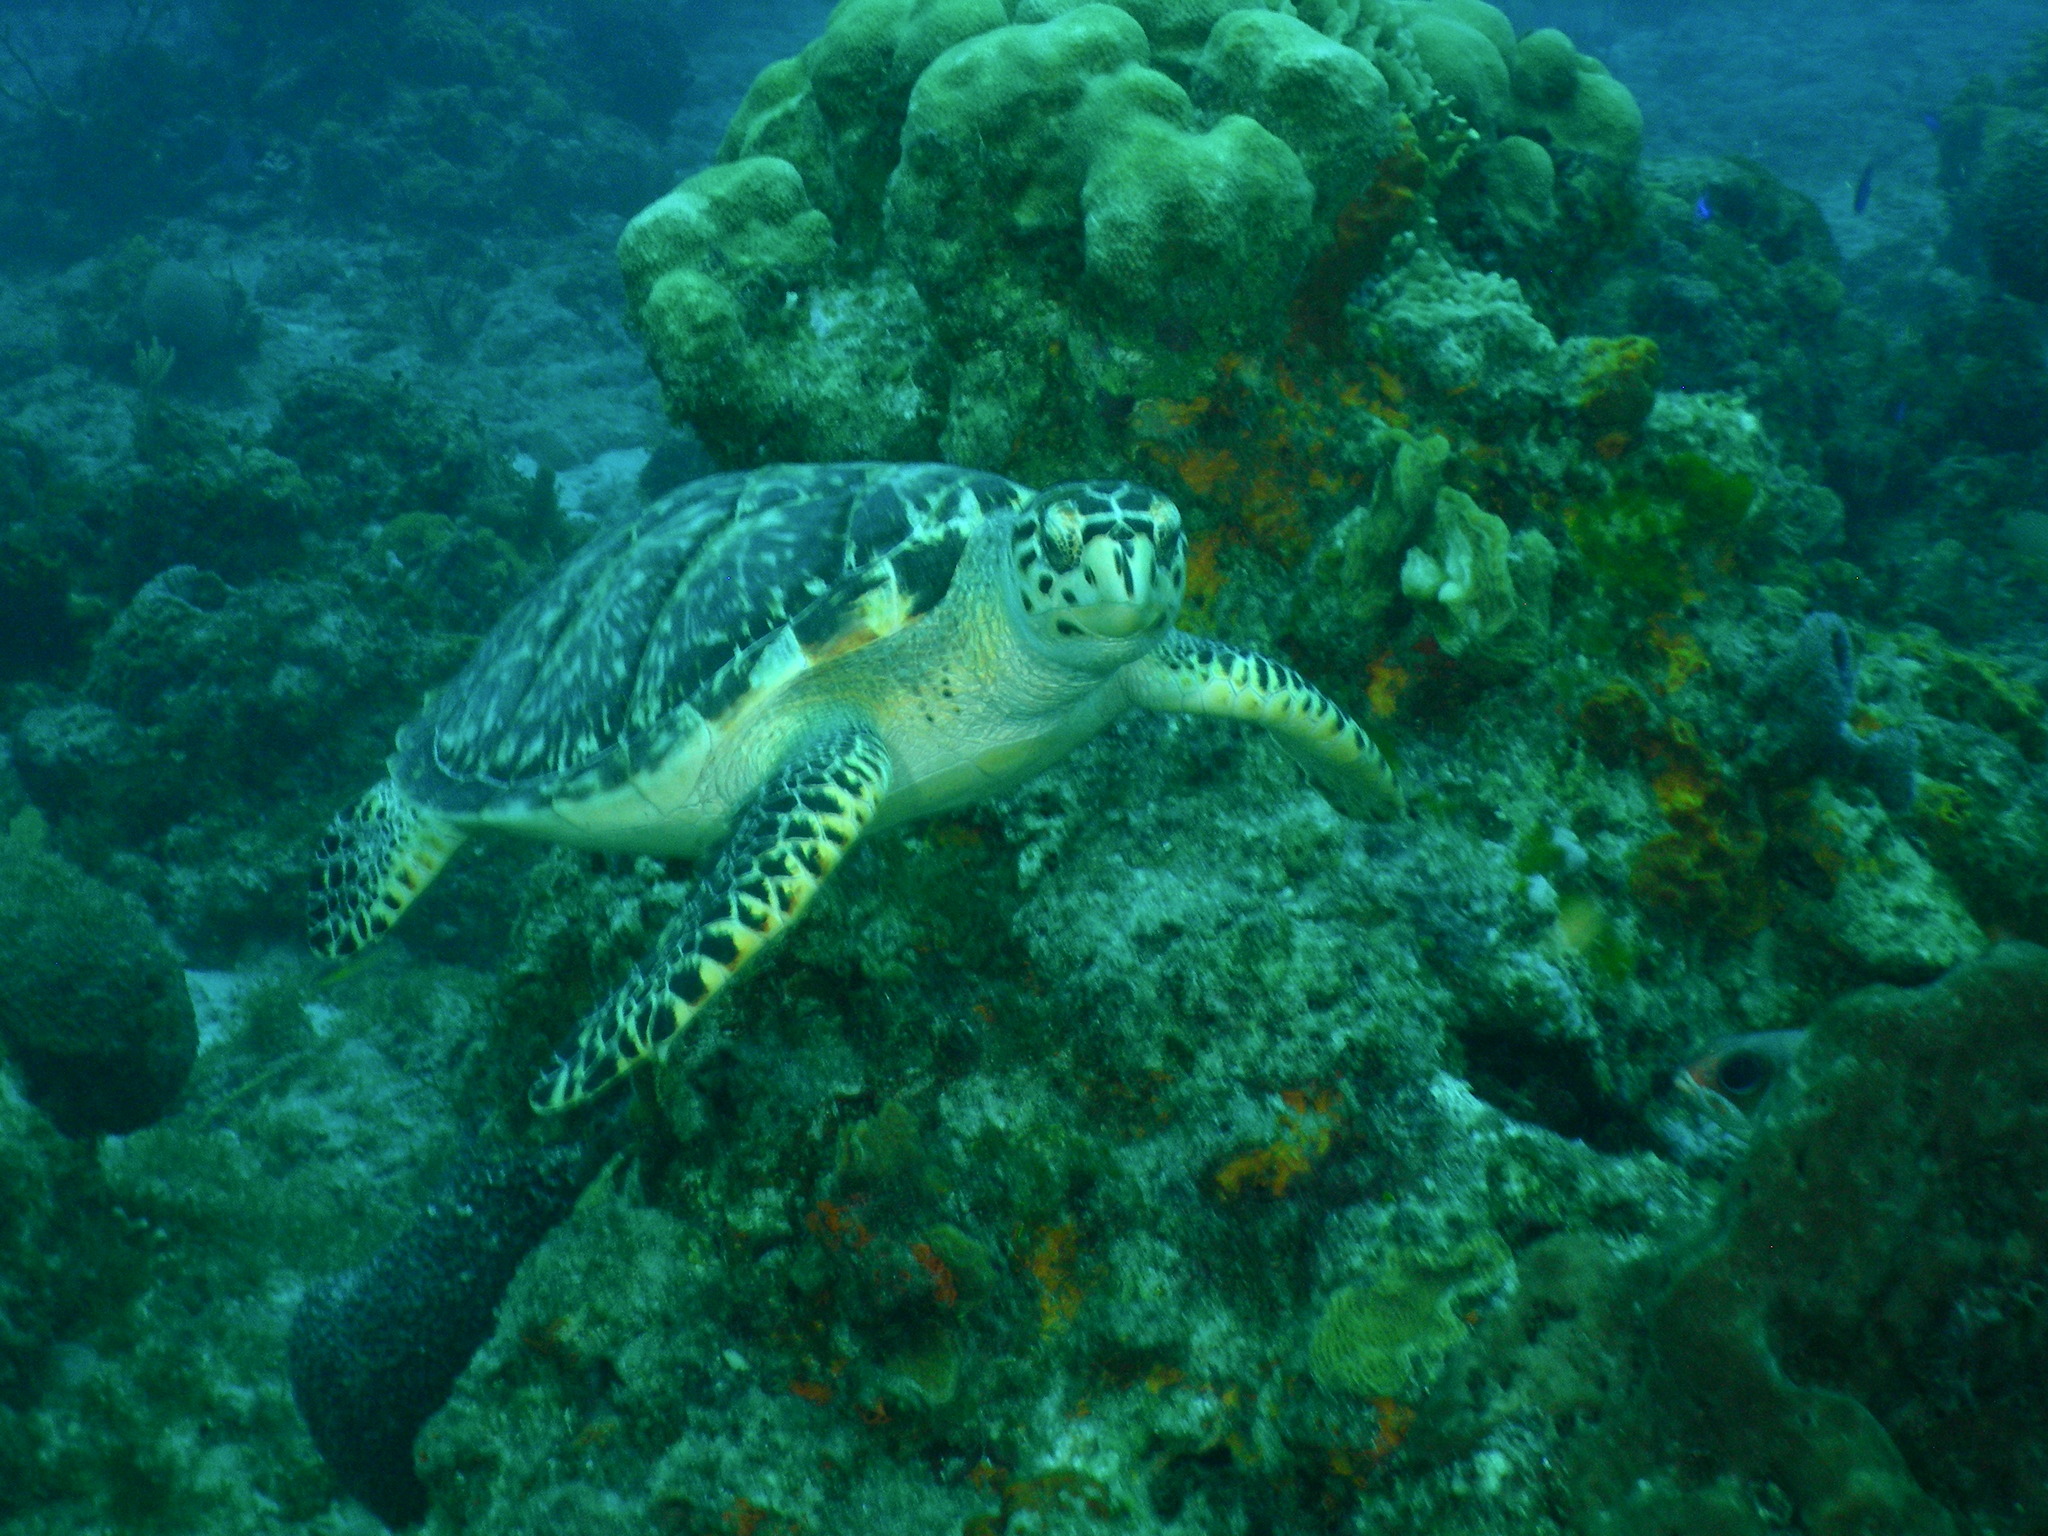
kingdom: Animalia
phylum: Chordata
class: Testudines
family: Cheloniidae
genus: Eretmochelys
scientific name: Eretmochelys imbricata
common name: Hawksbill turtle
